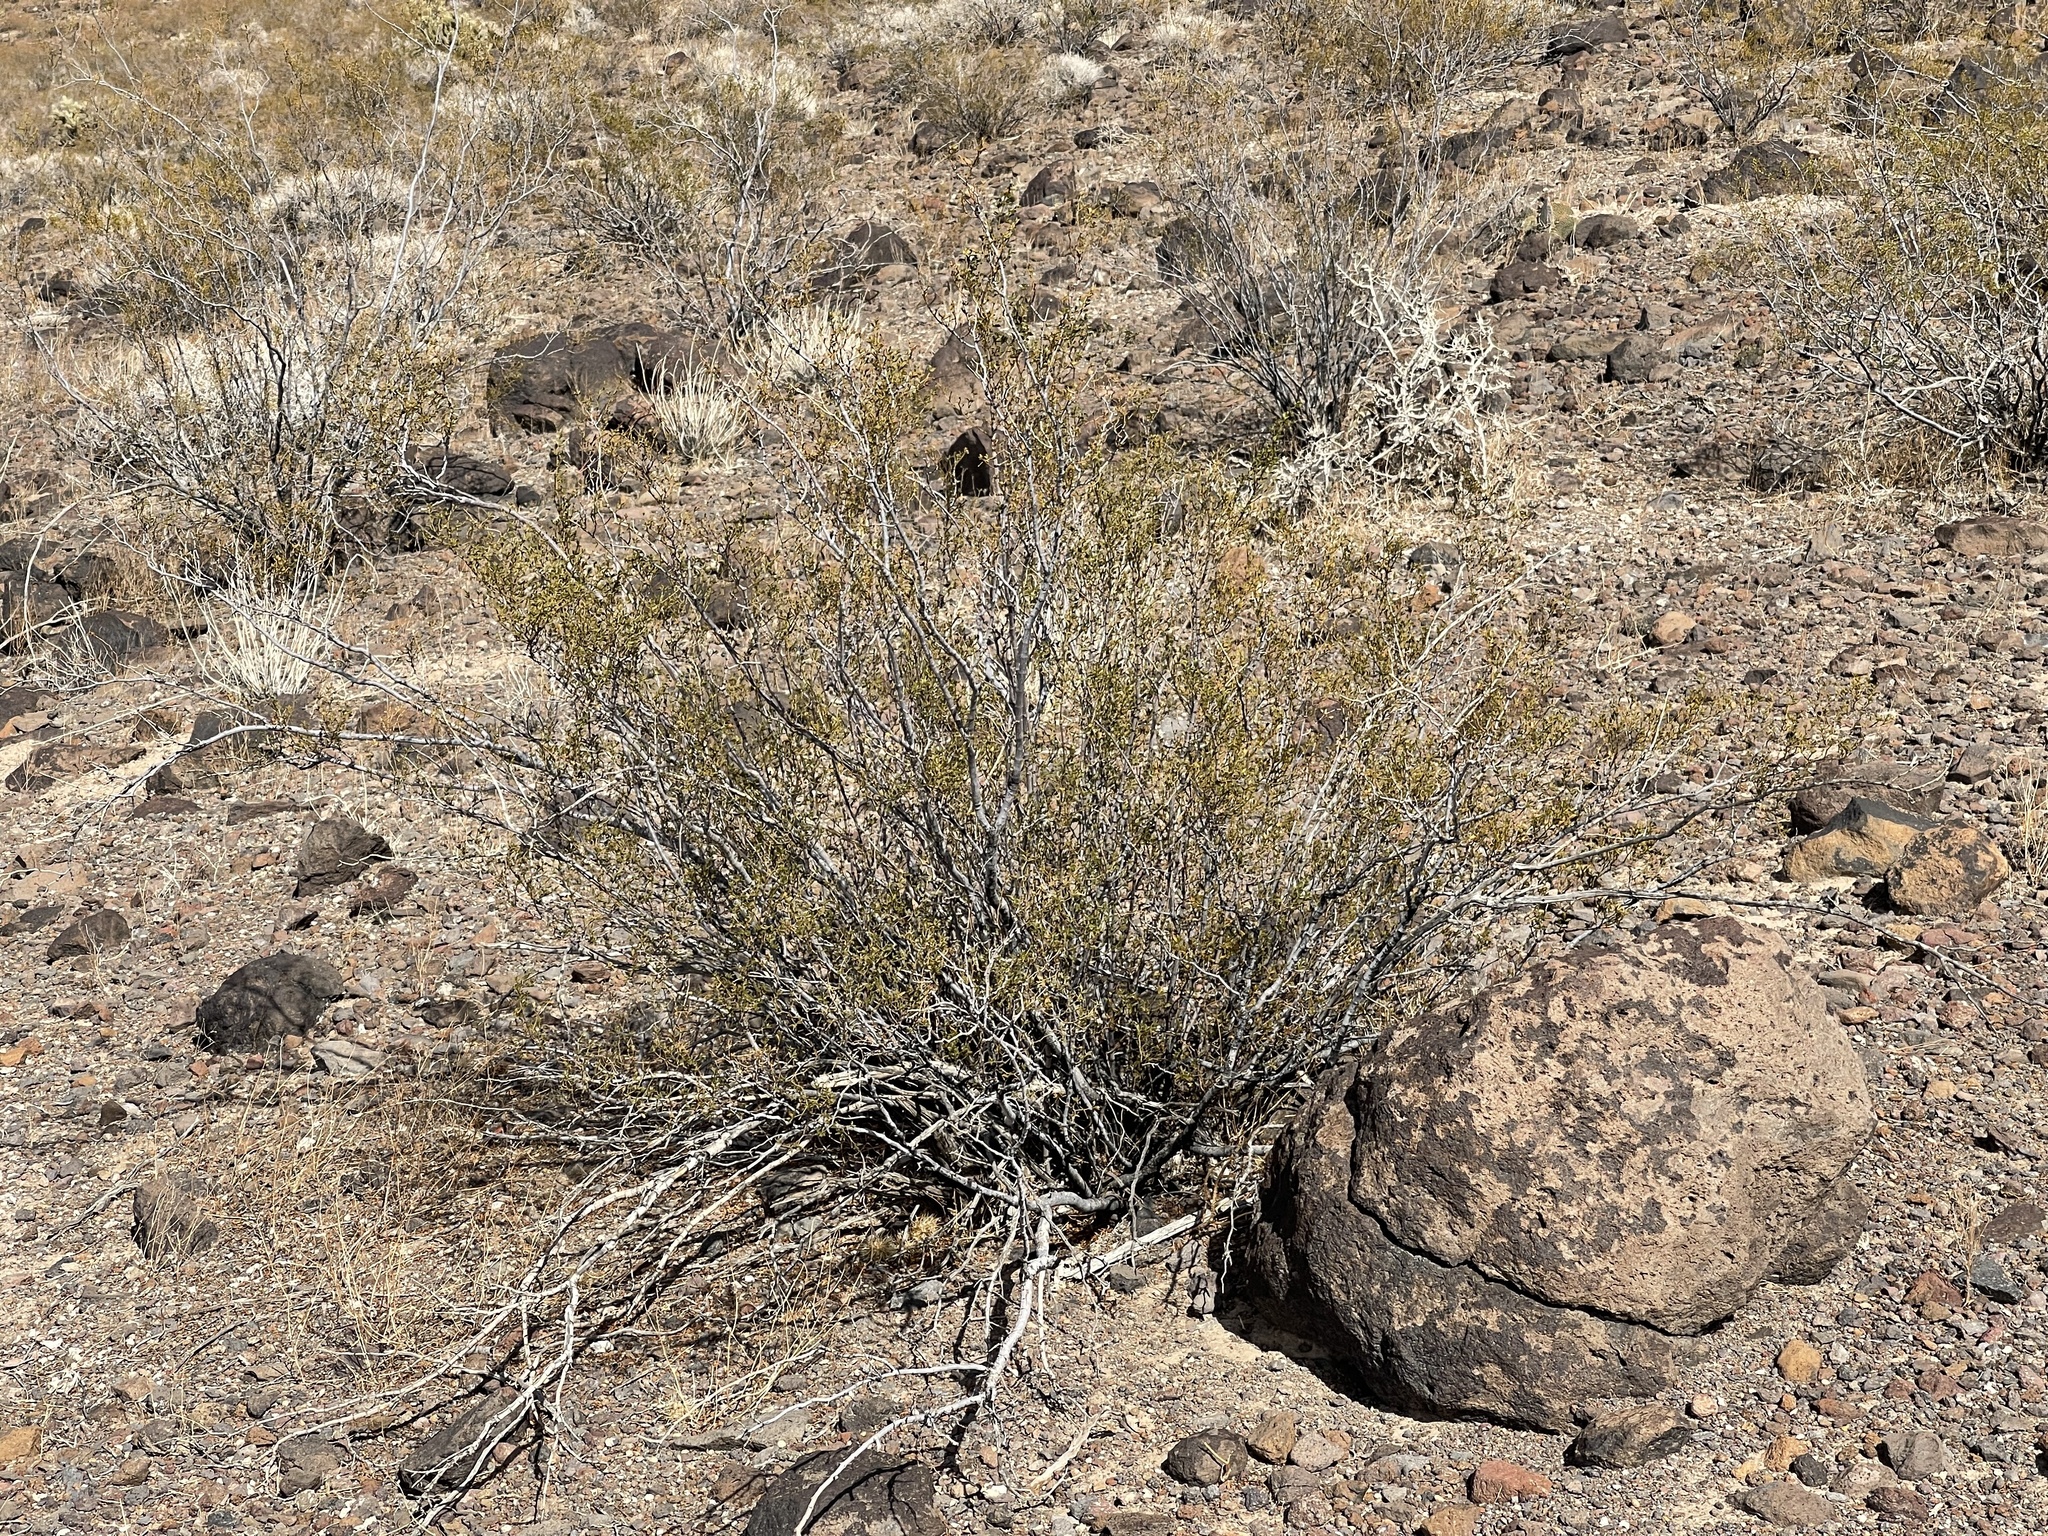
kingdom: Plantae
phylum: Tracheophyta
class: Magnoliopsida
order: Zygophyllales
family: Zygophyllaceae
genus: Larrea
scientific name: Larrea tridentata
